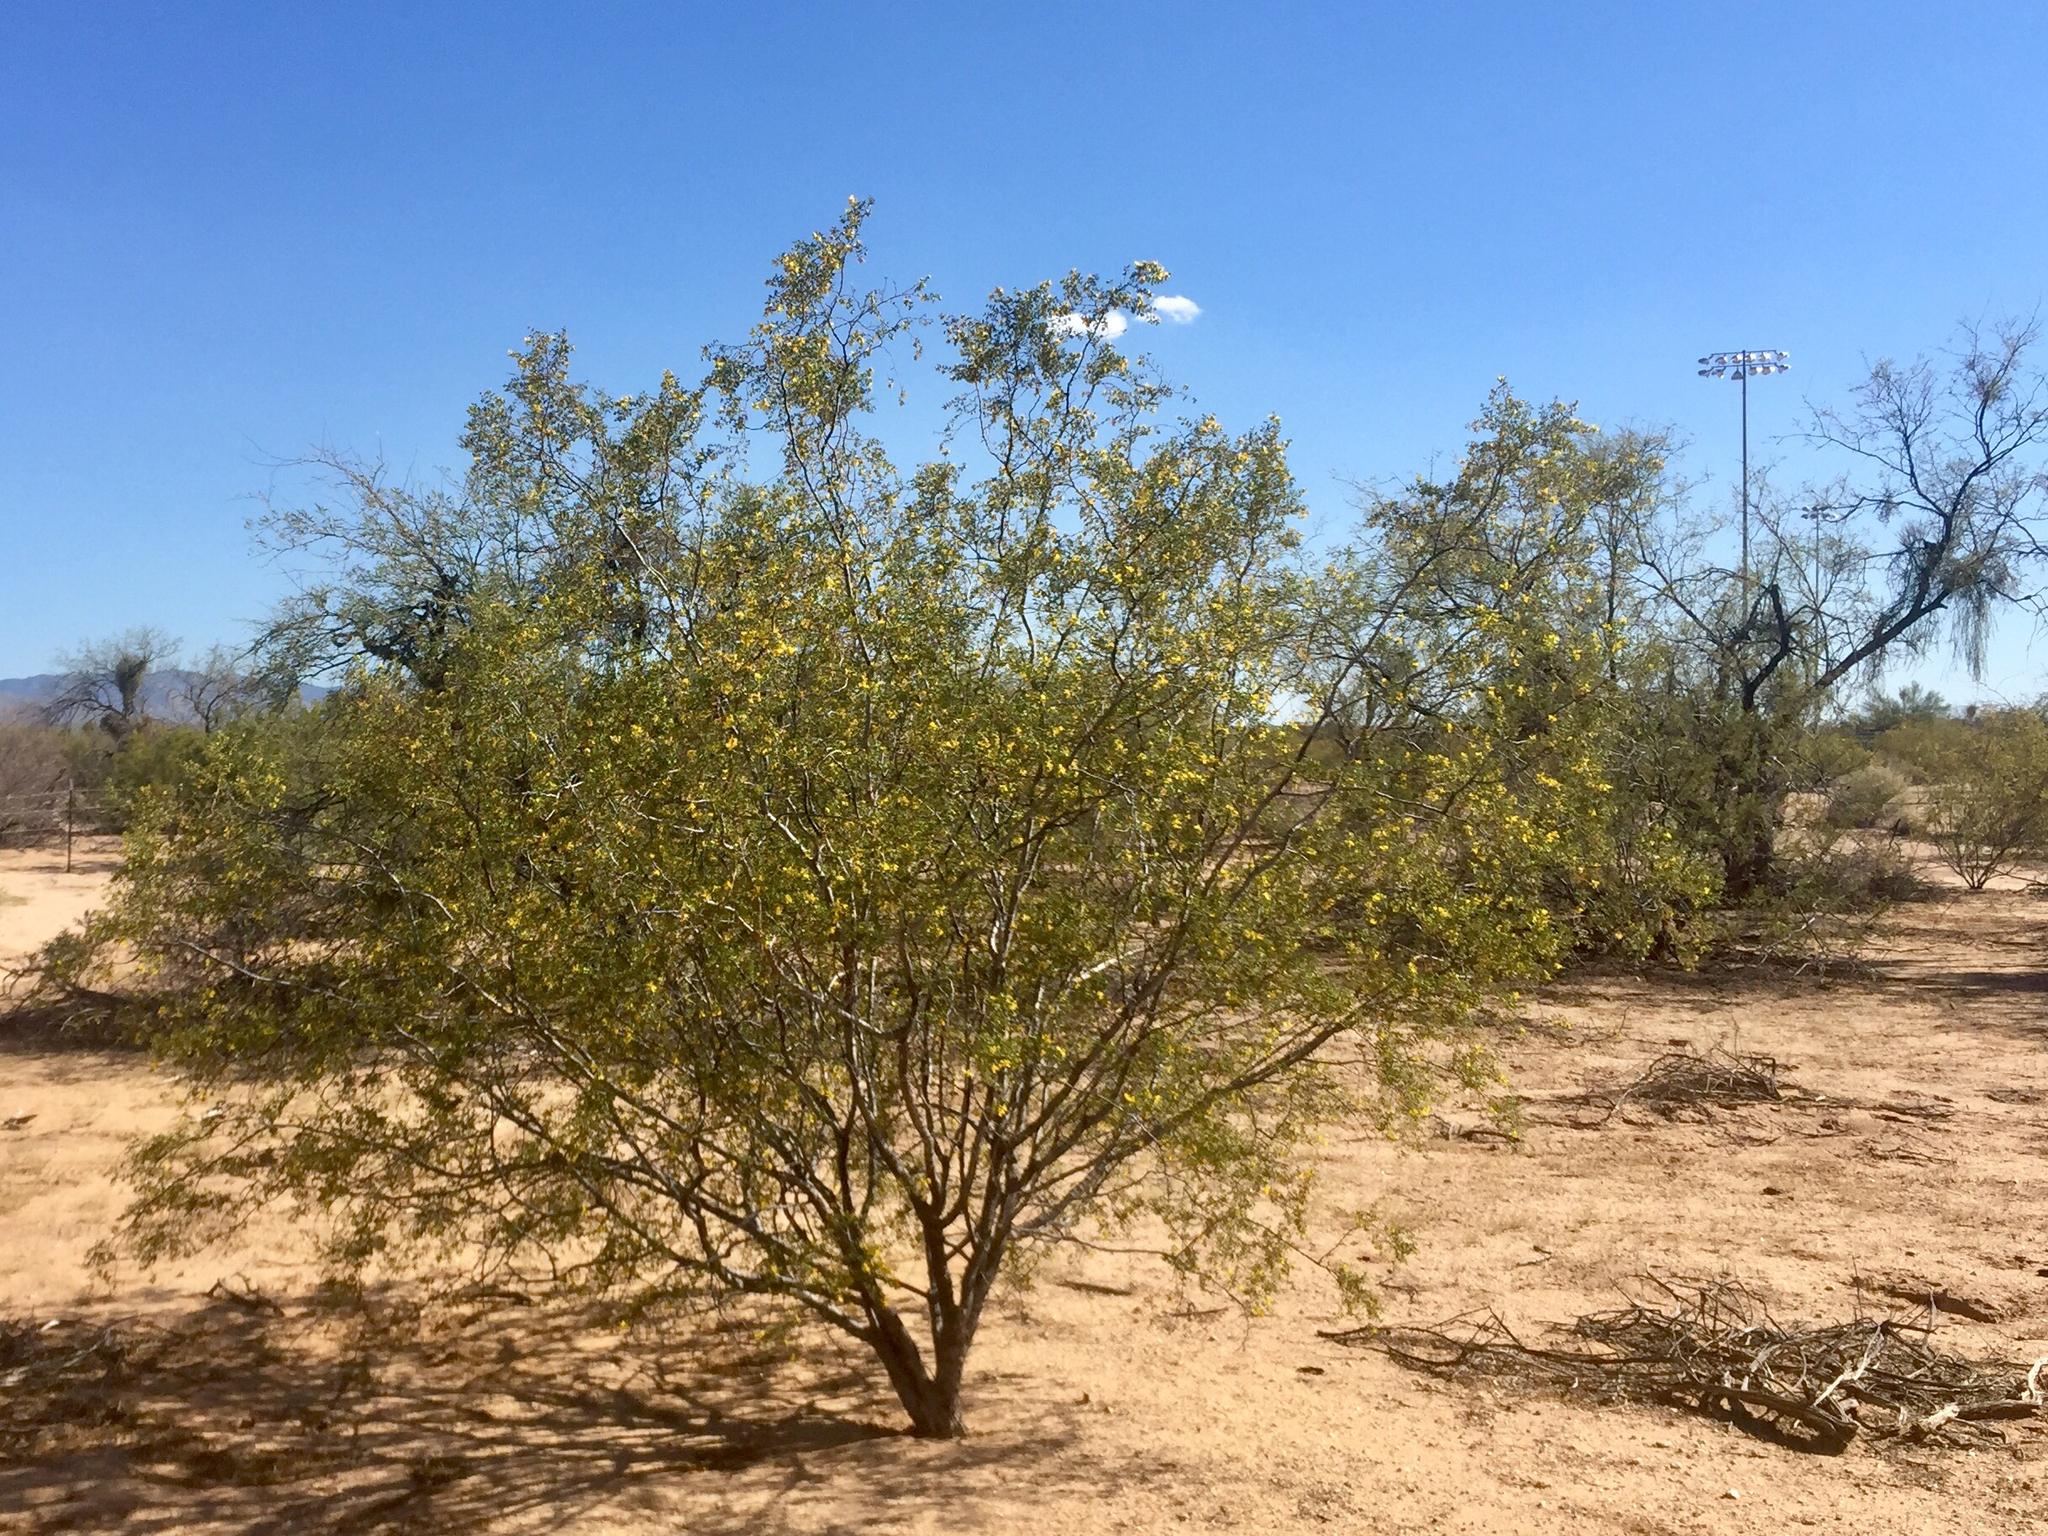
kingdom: Plantae
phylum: Tracheophyta
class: Magnoliopsida
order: Zygophyllales
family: Zygophyllaceae
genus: Larrea
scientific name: Larrea tridentata
